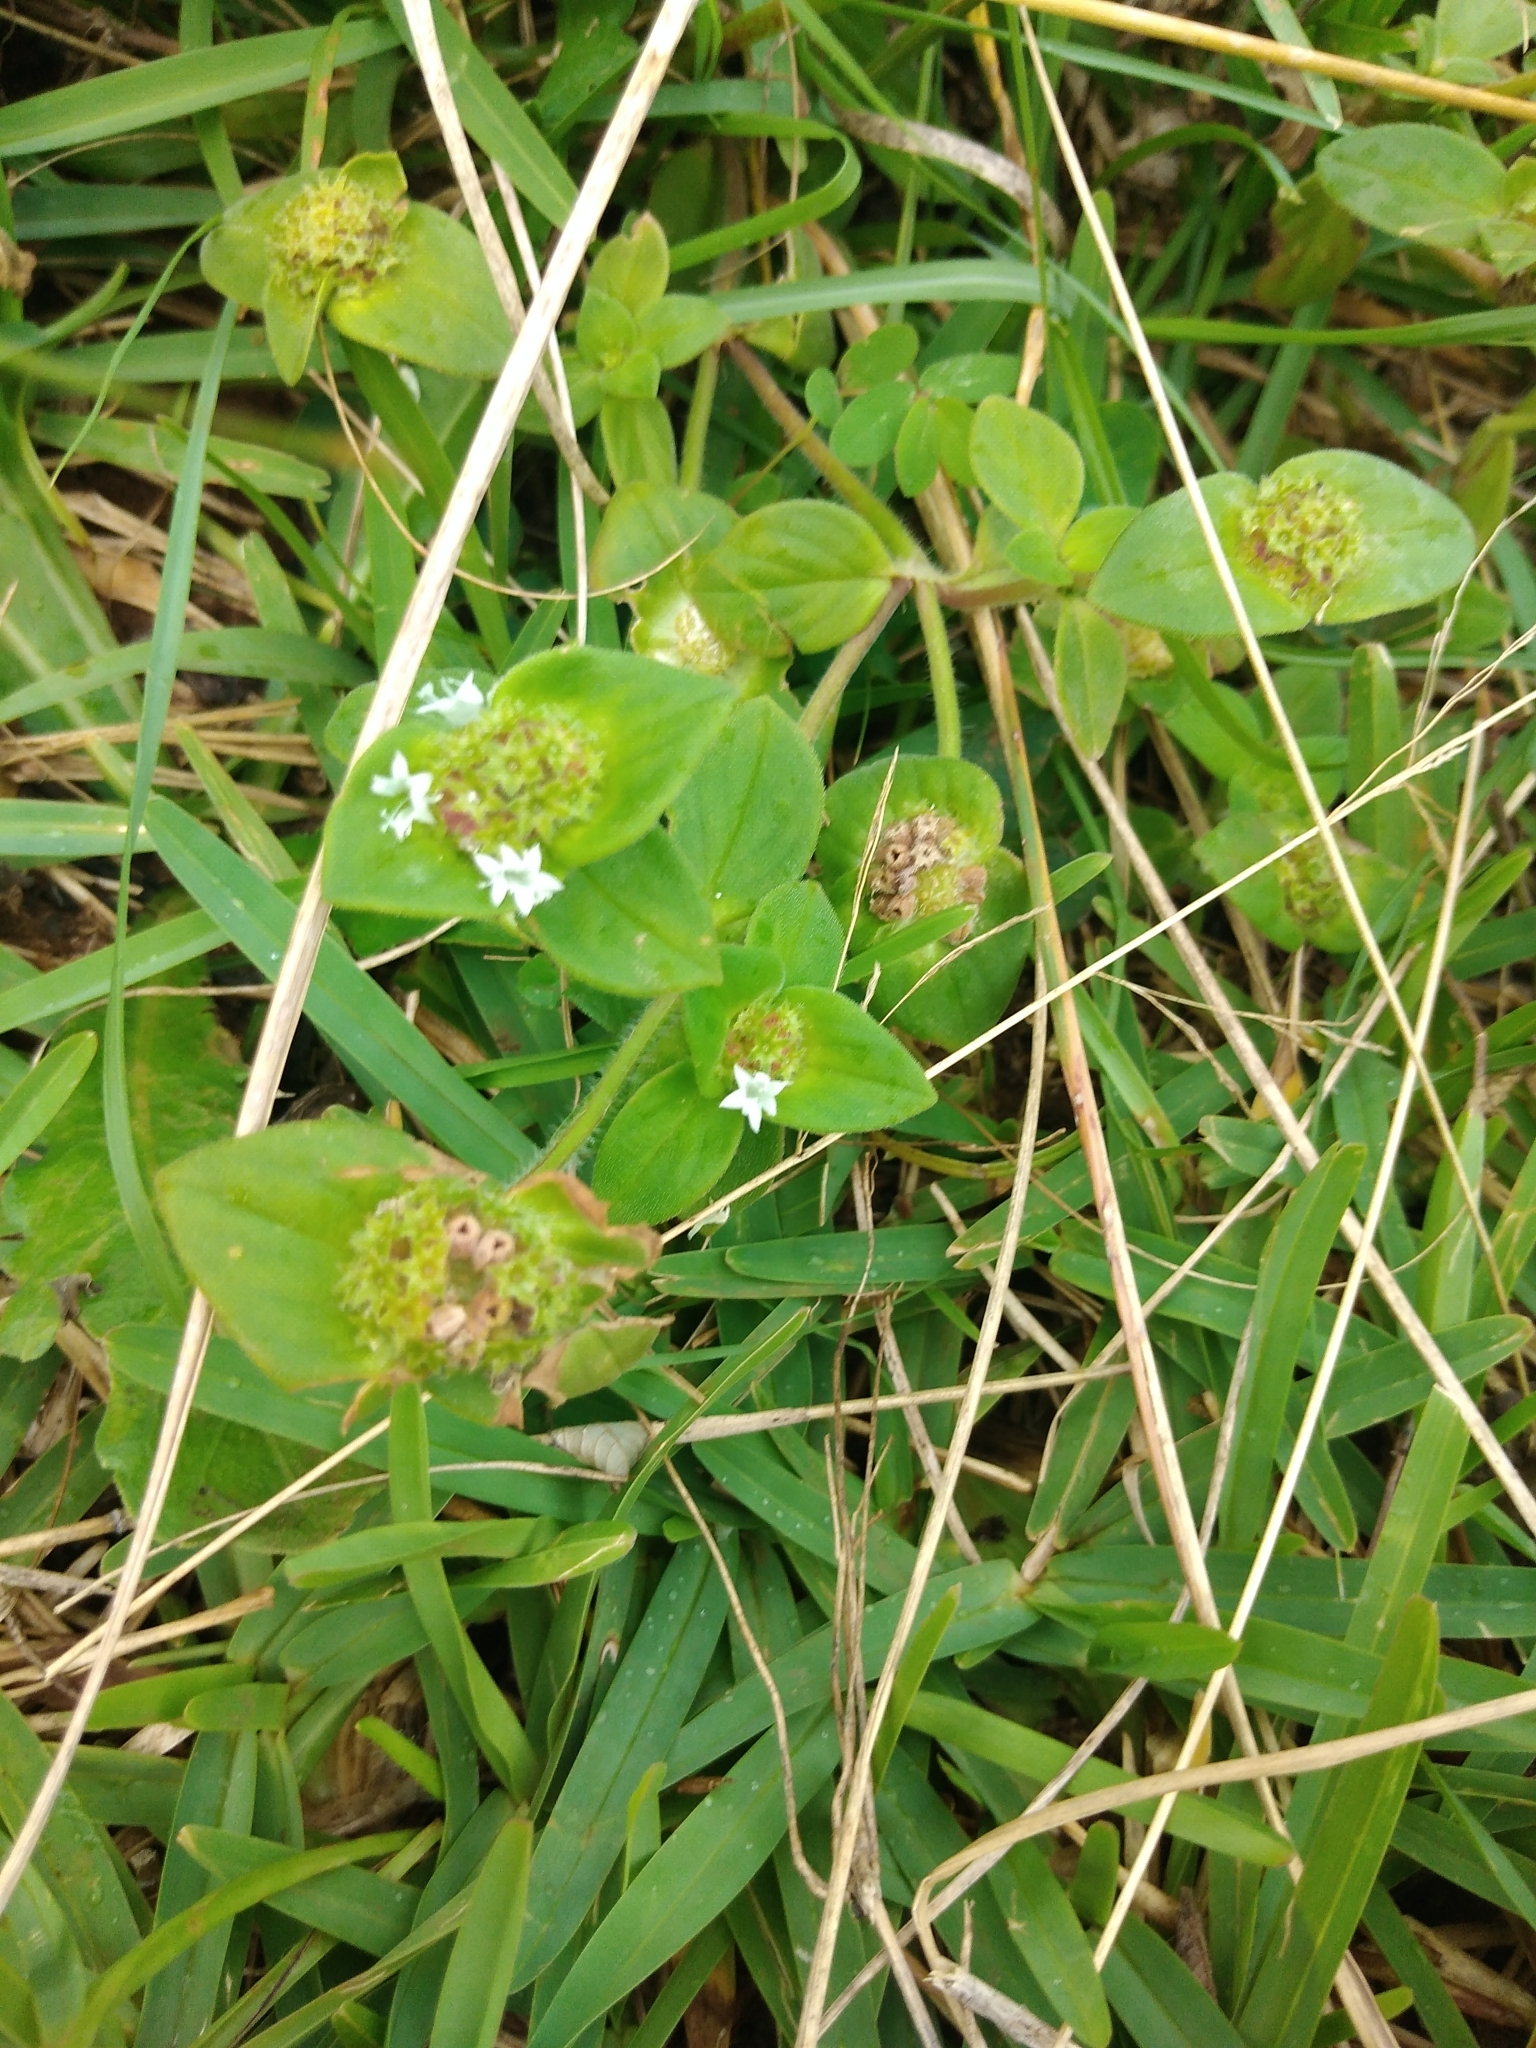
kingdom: Plantae
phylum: Tracheophyta
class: Magnoliopsida
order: Gentianales
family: Rubiaceae
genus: Richardia
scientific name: Richardia brasiliensis
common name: Tropical mexican clover
